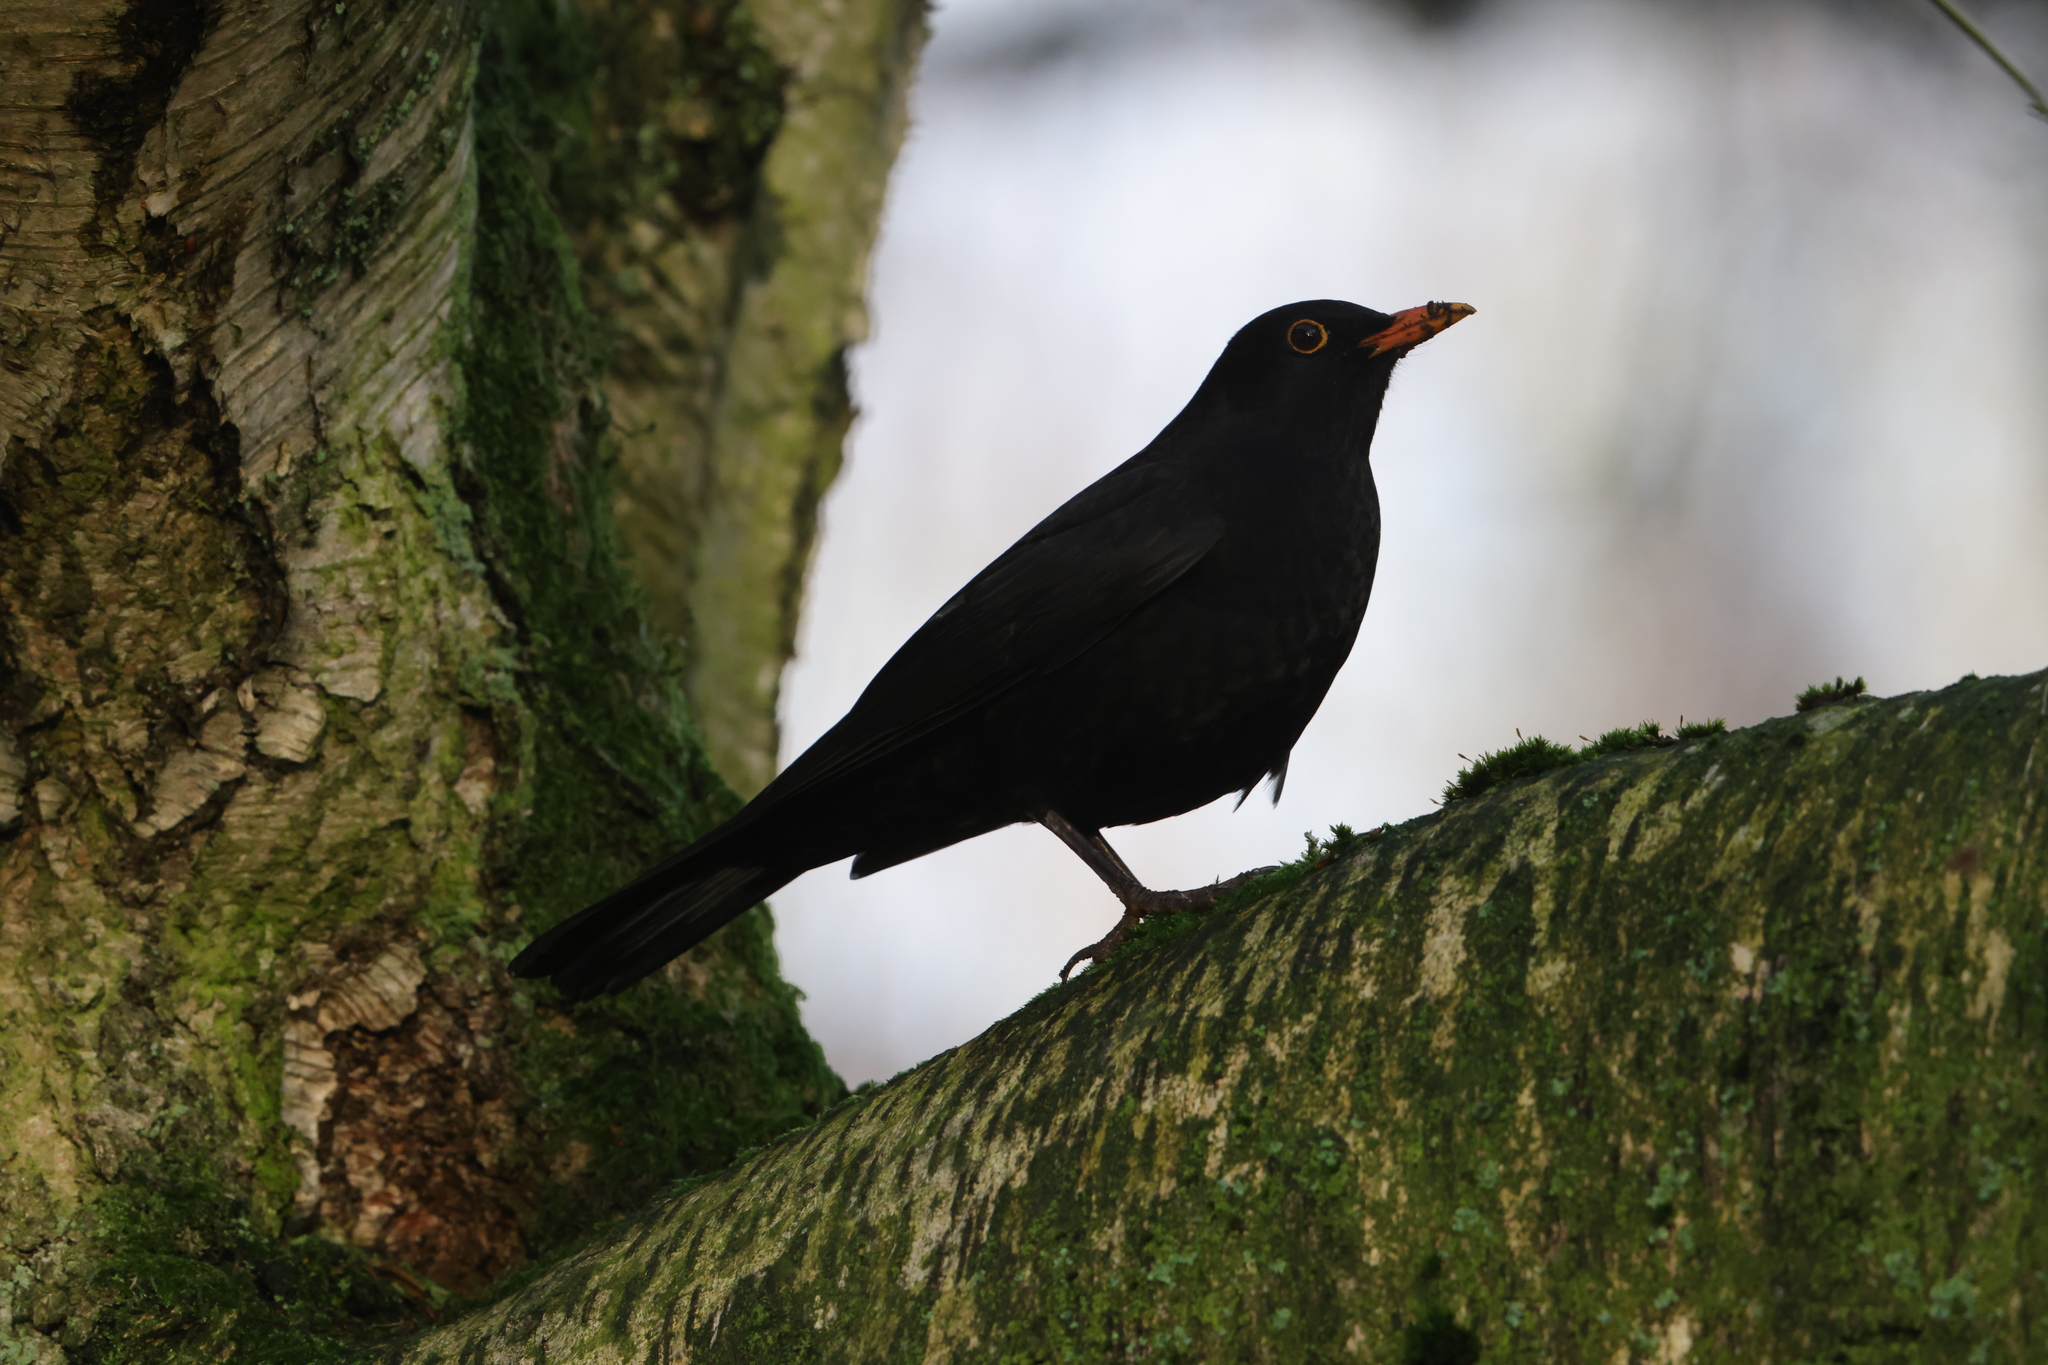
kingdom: Animalia
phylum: Chordata
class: Aves
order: Passeriformes
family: Turdidae
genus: Turdus
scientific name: Turdus merula
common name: Common blackbird
